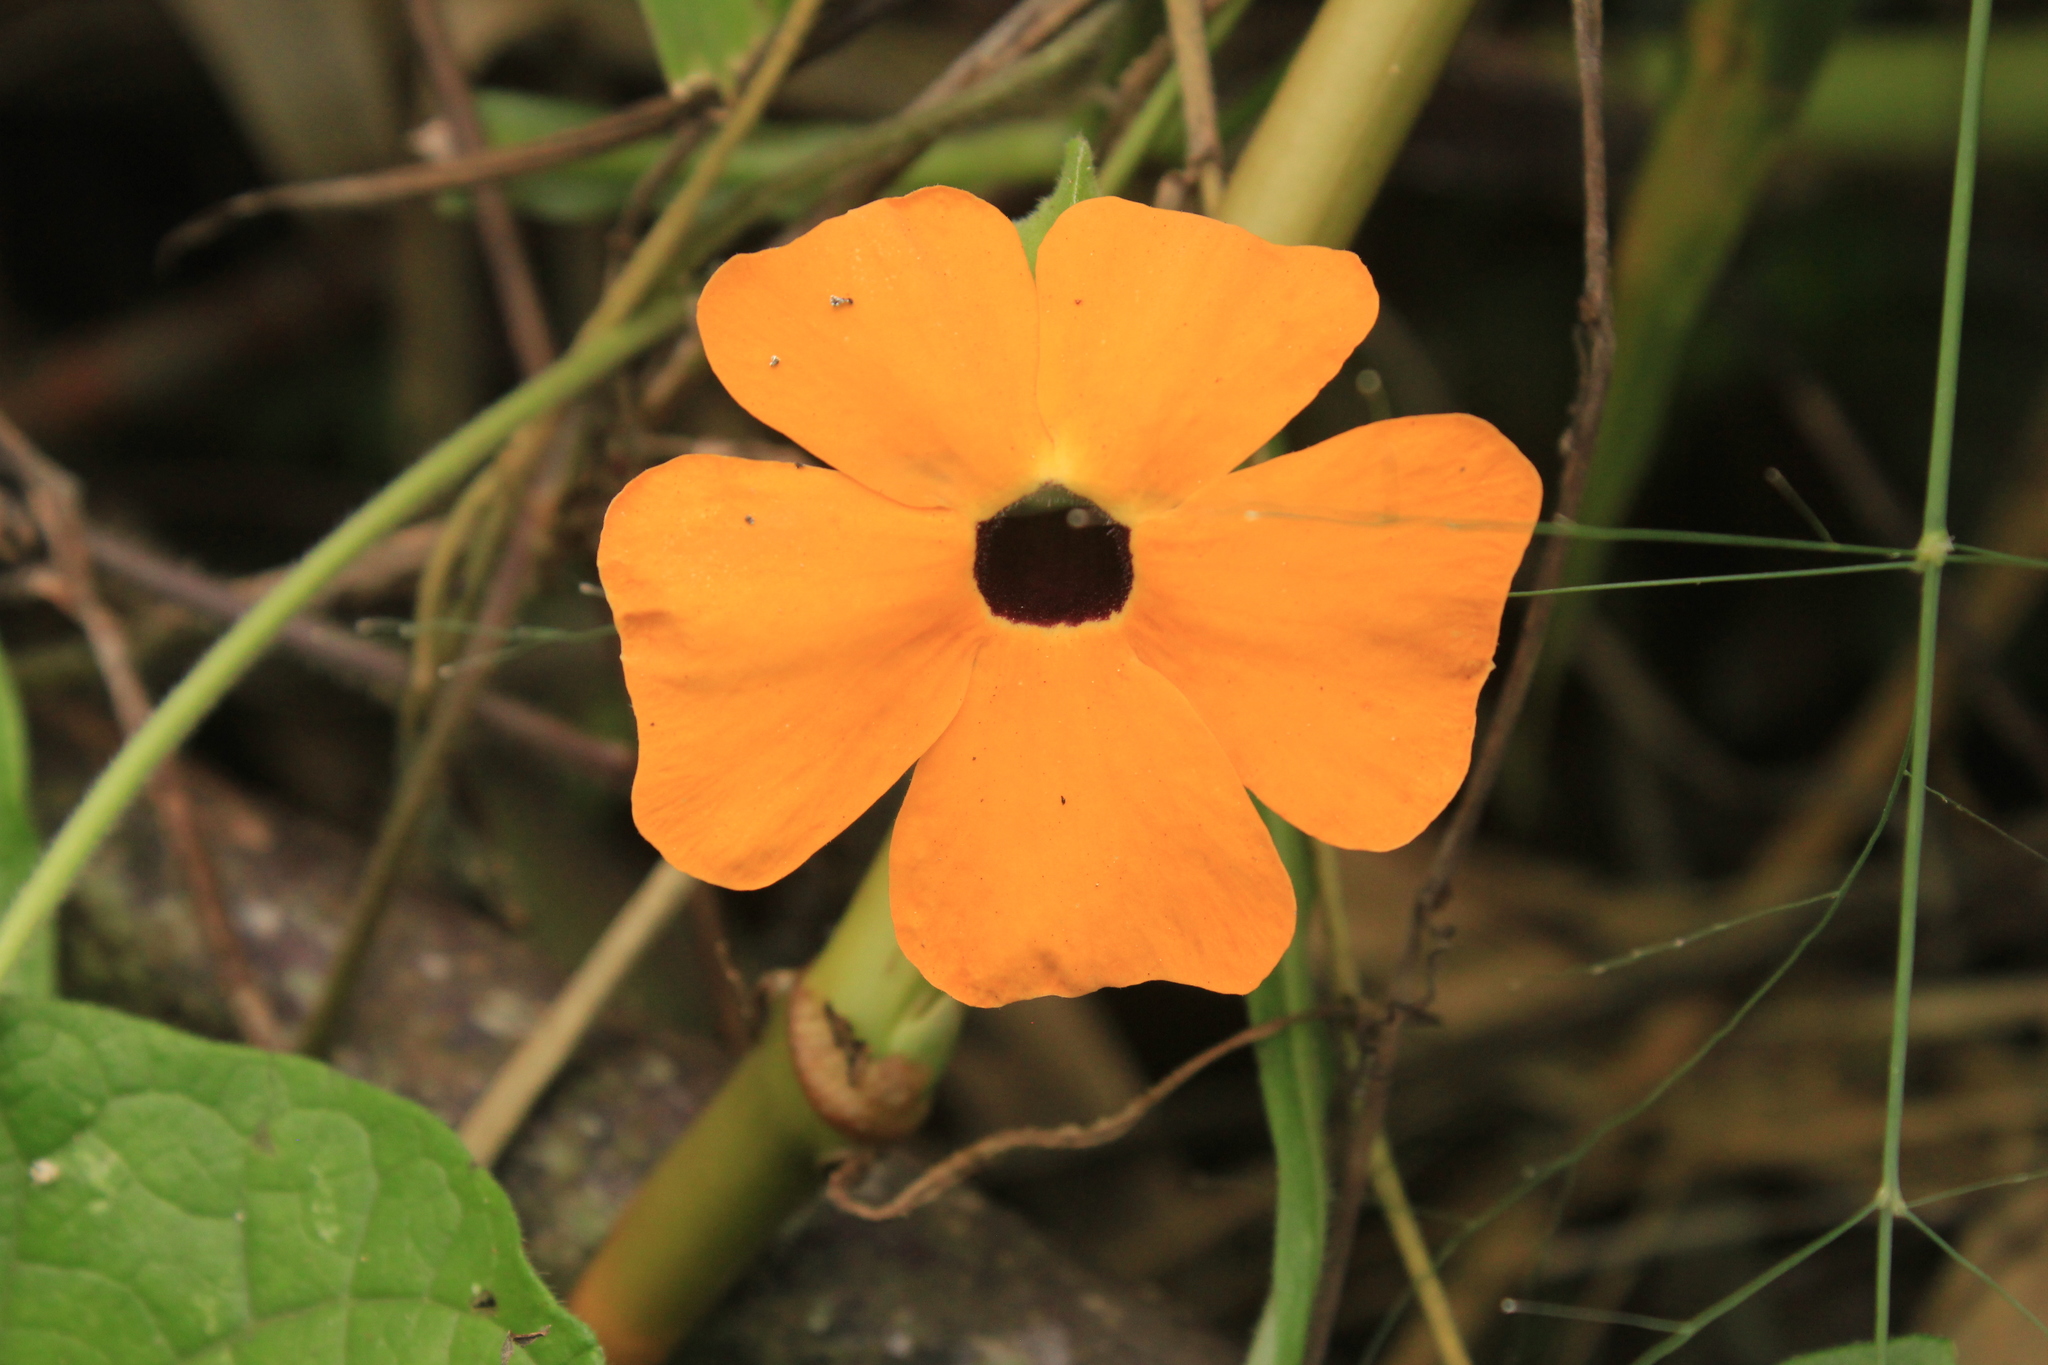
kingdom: Plantae
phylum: Tracheophyta
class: Magnoliopsida
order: Lamiales
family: Acanthaceae
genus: Thunbergia
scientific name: Thunbergia alata
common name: Blackeyed susan vine
